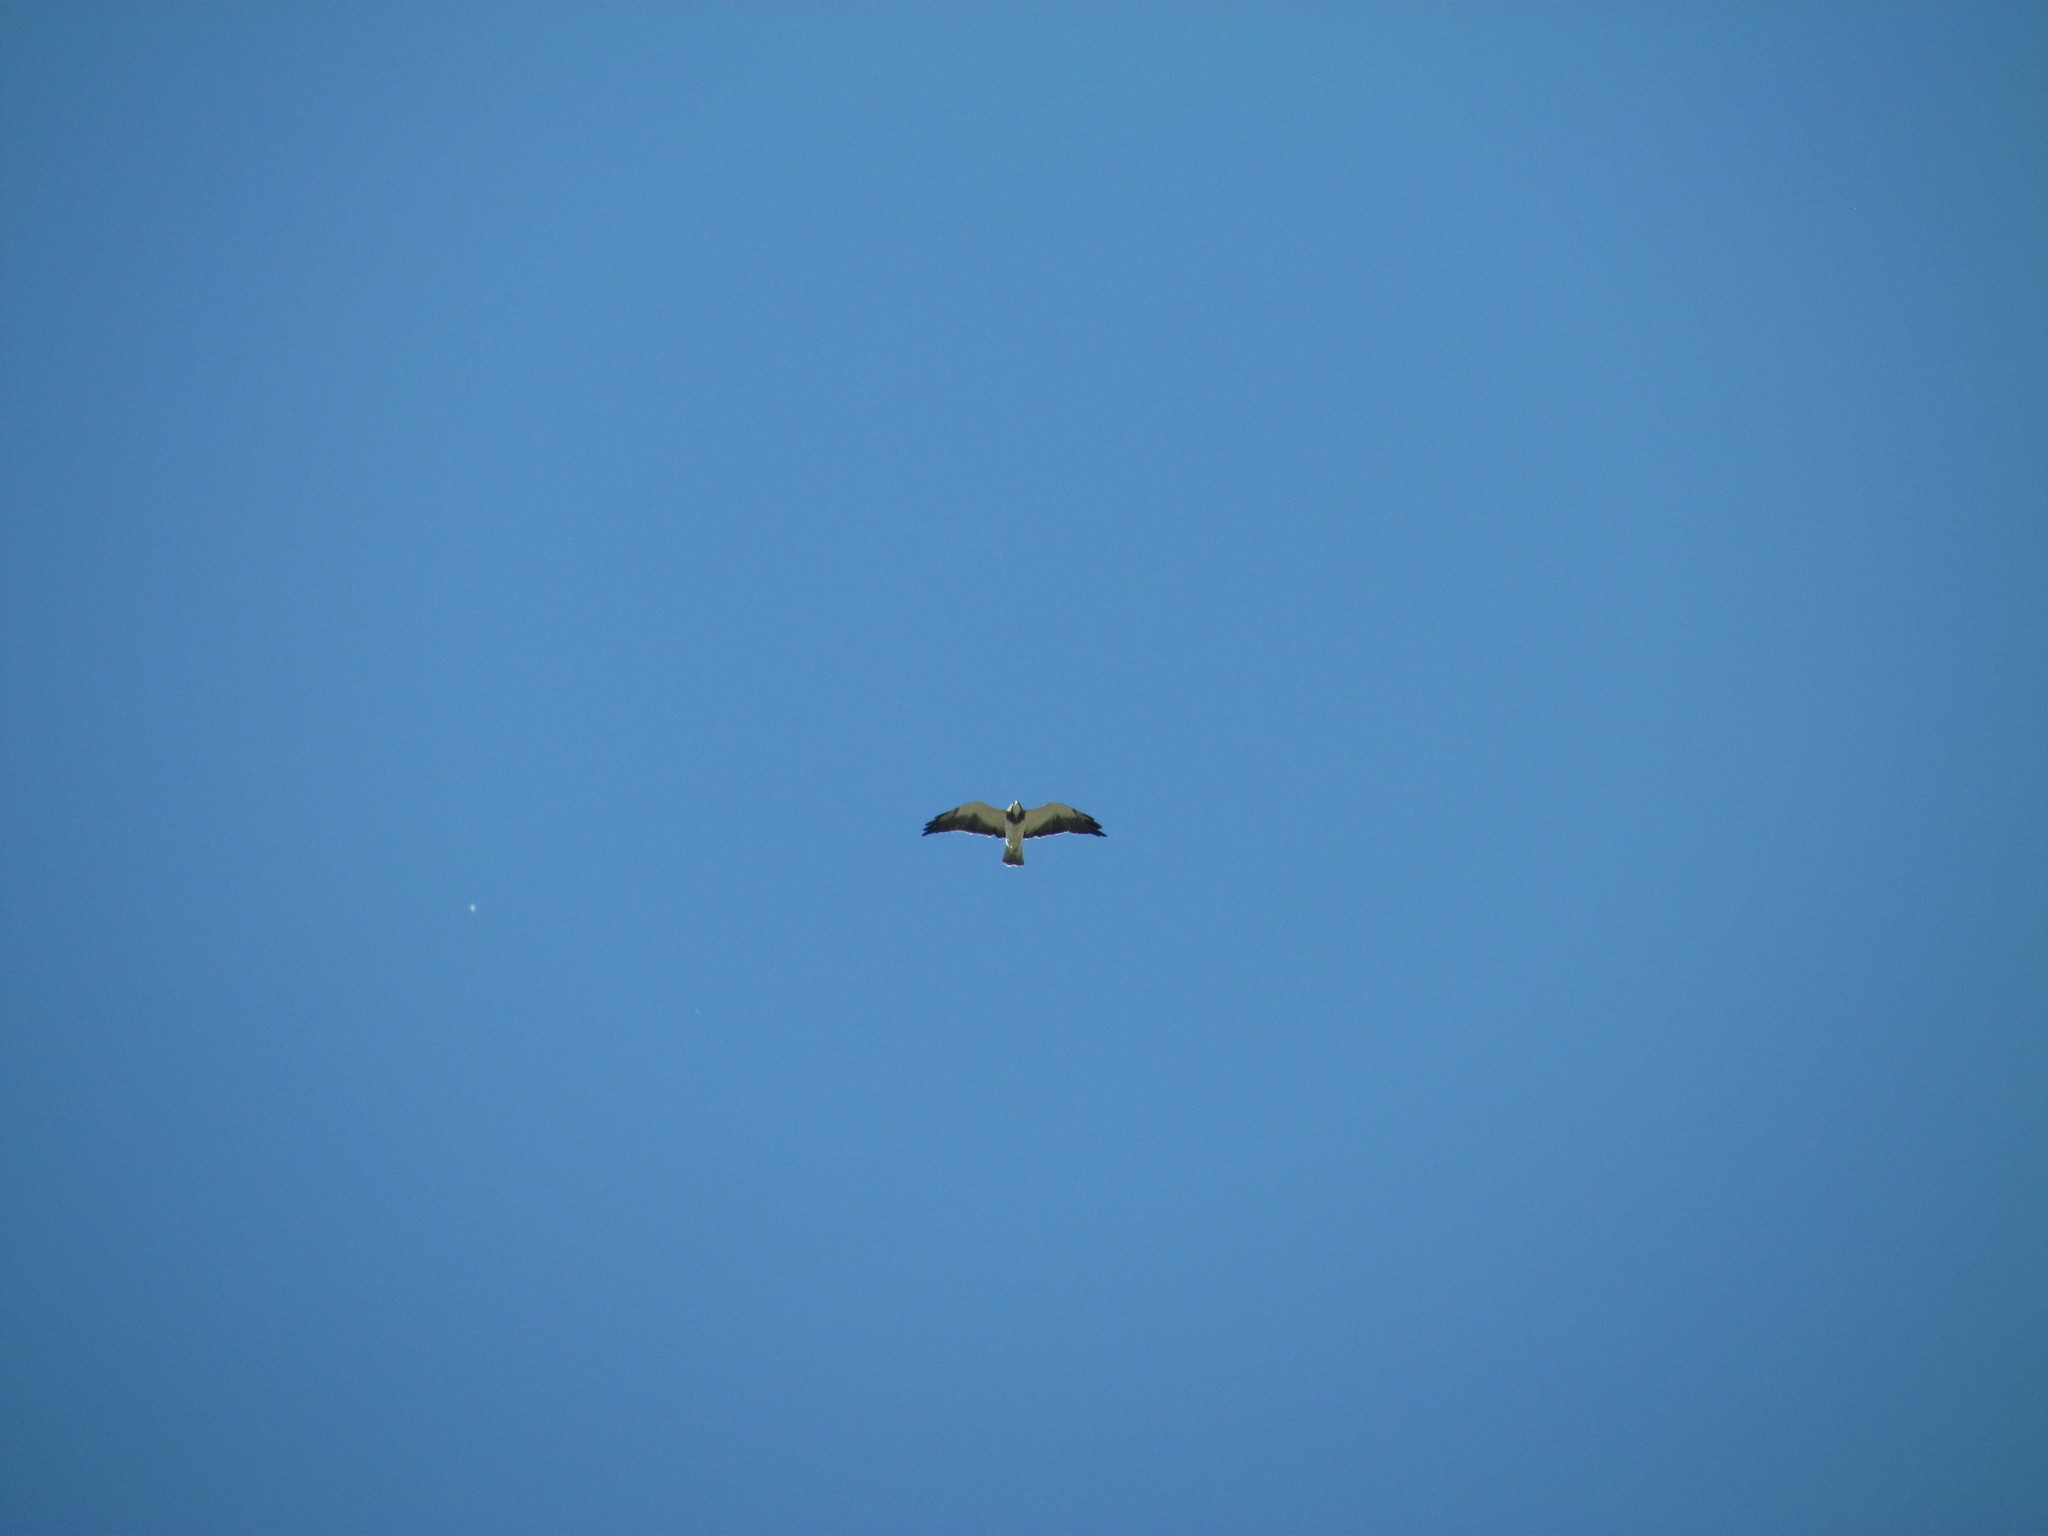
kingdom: Animalia
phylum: Chordata
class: Aves
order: Accipitriformes
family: Accipitridae
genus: Buteo
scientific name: Buteo swainsoni
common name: Swainson's hawk
